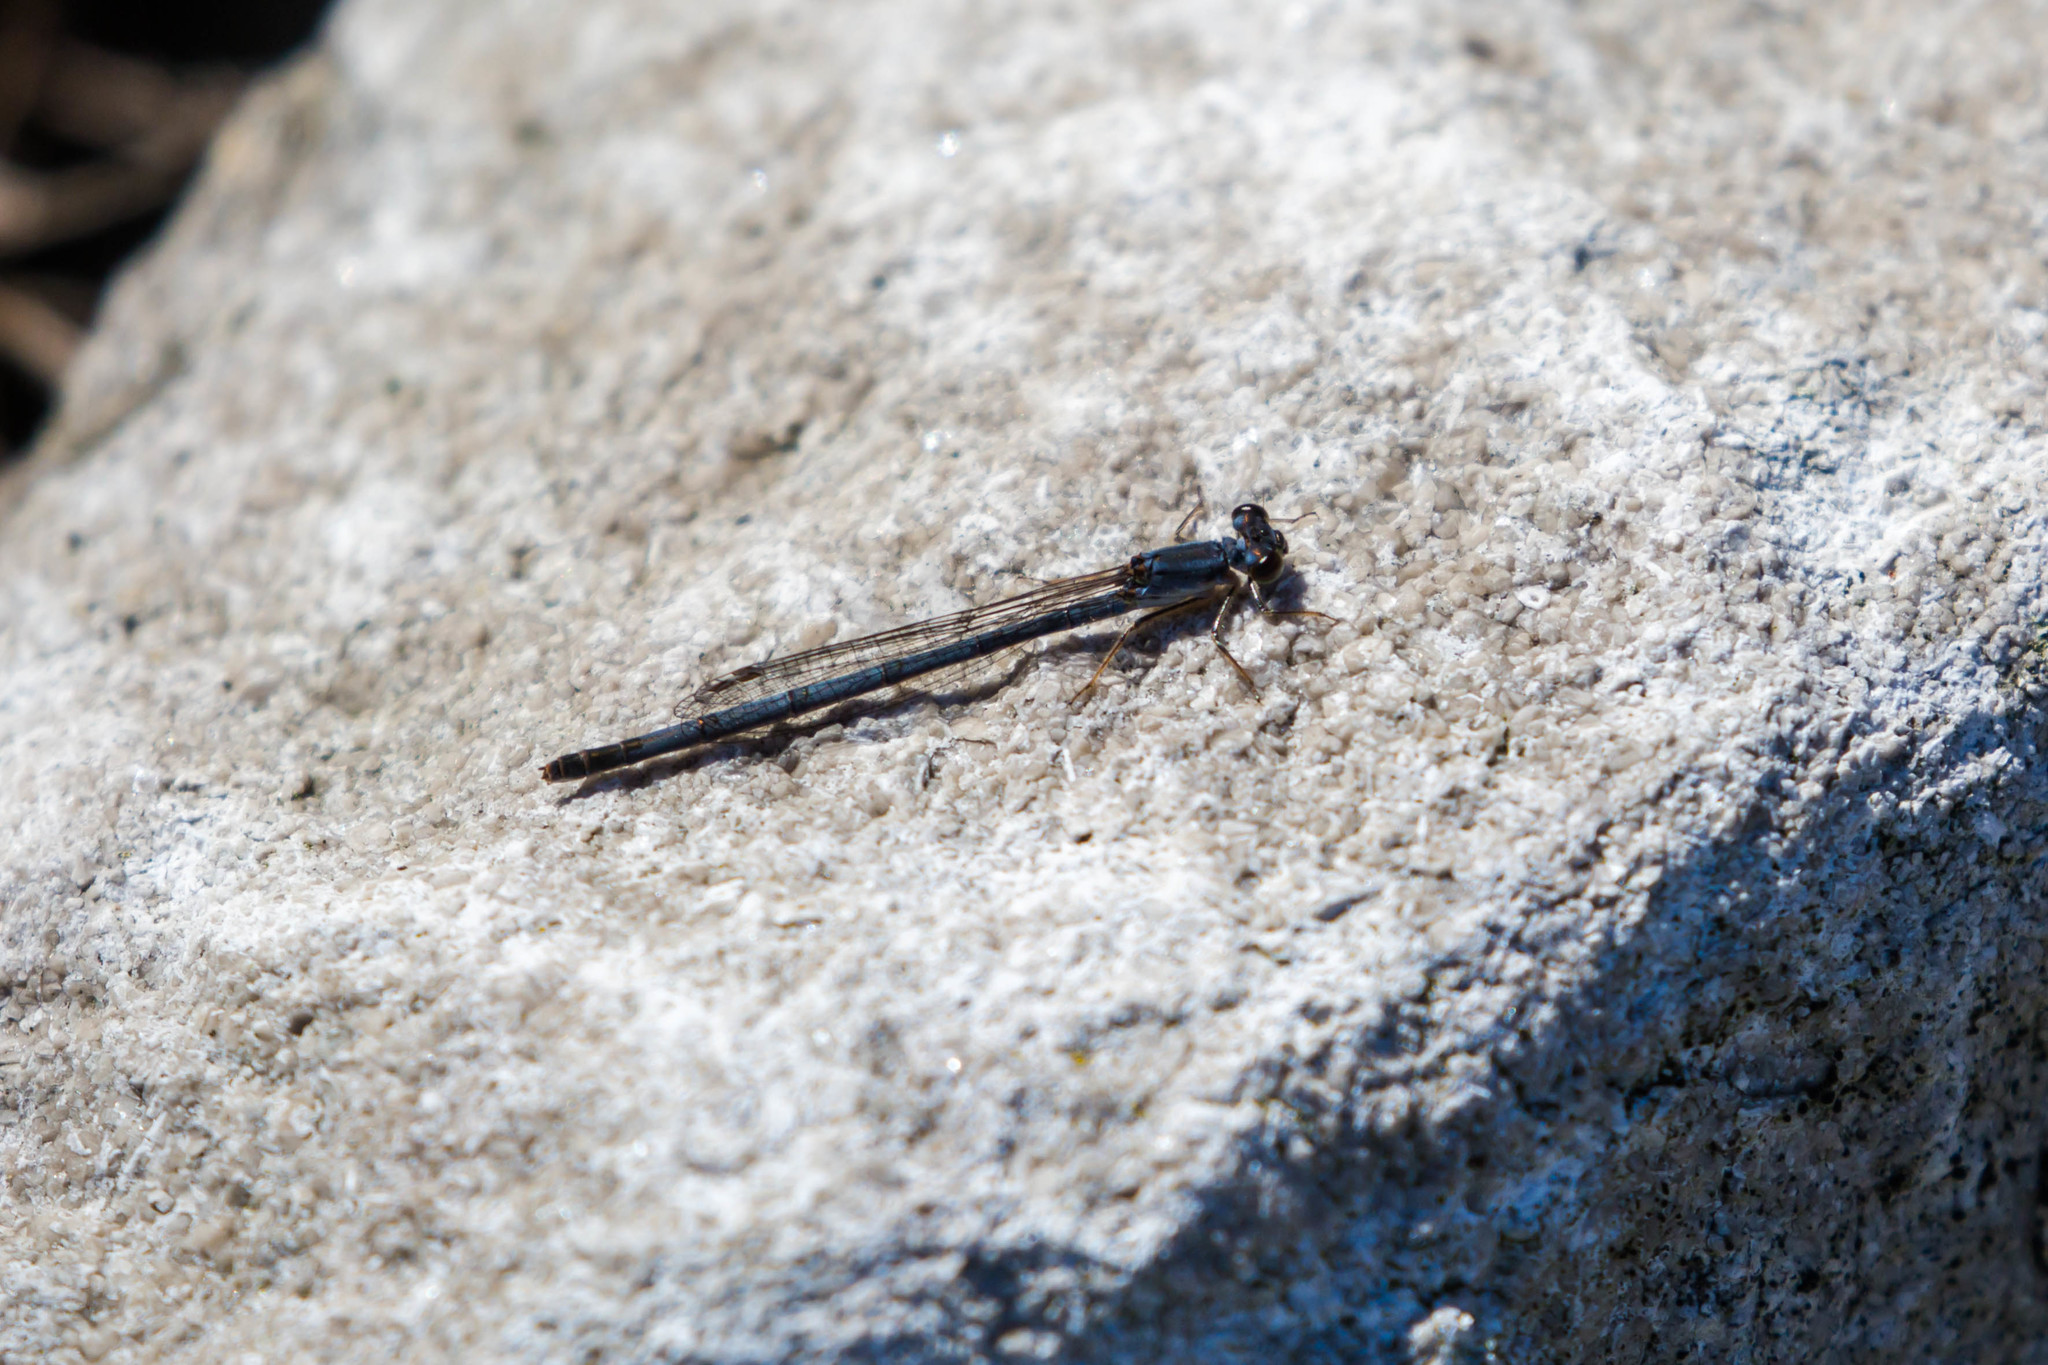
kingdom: Animalia
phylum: Arthropoda
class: Insecta
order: Odonata
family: Coenagrionidae
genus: Ischnura
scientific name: Ischnura posita
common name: Fragile forktail
